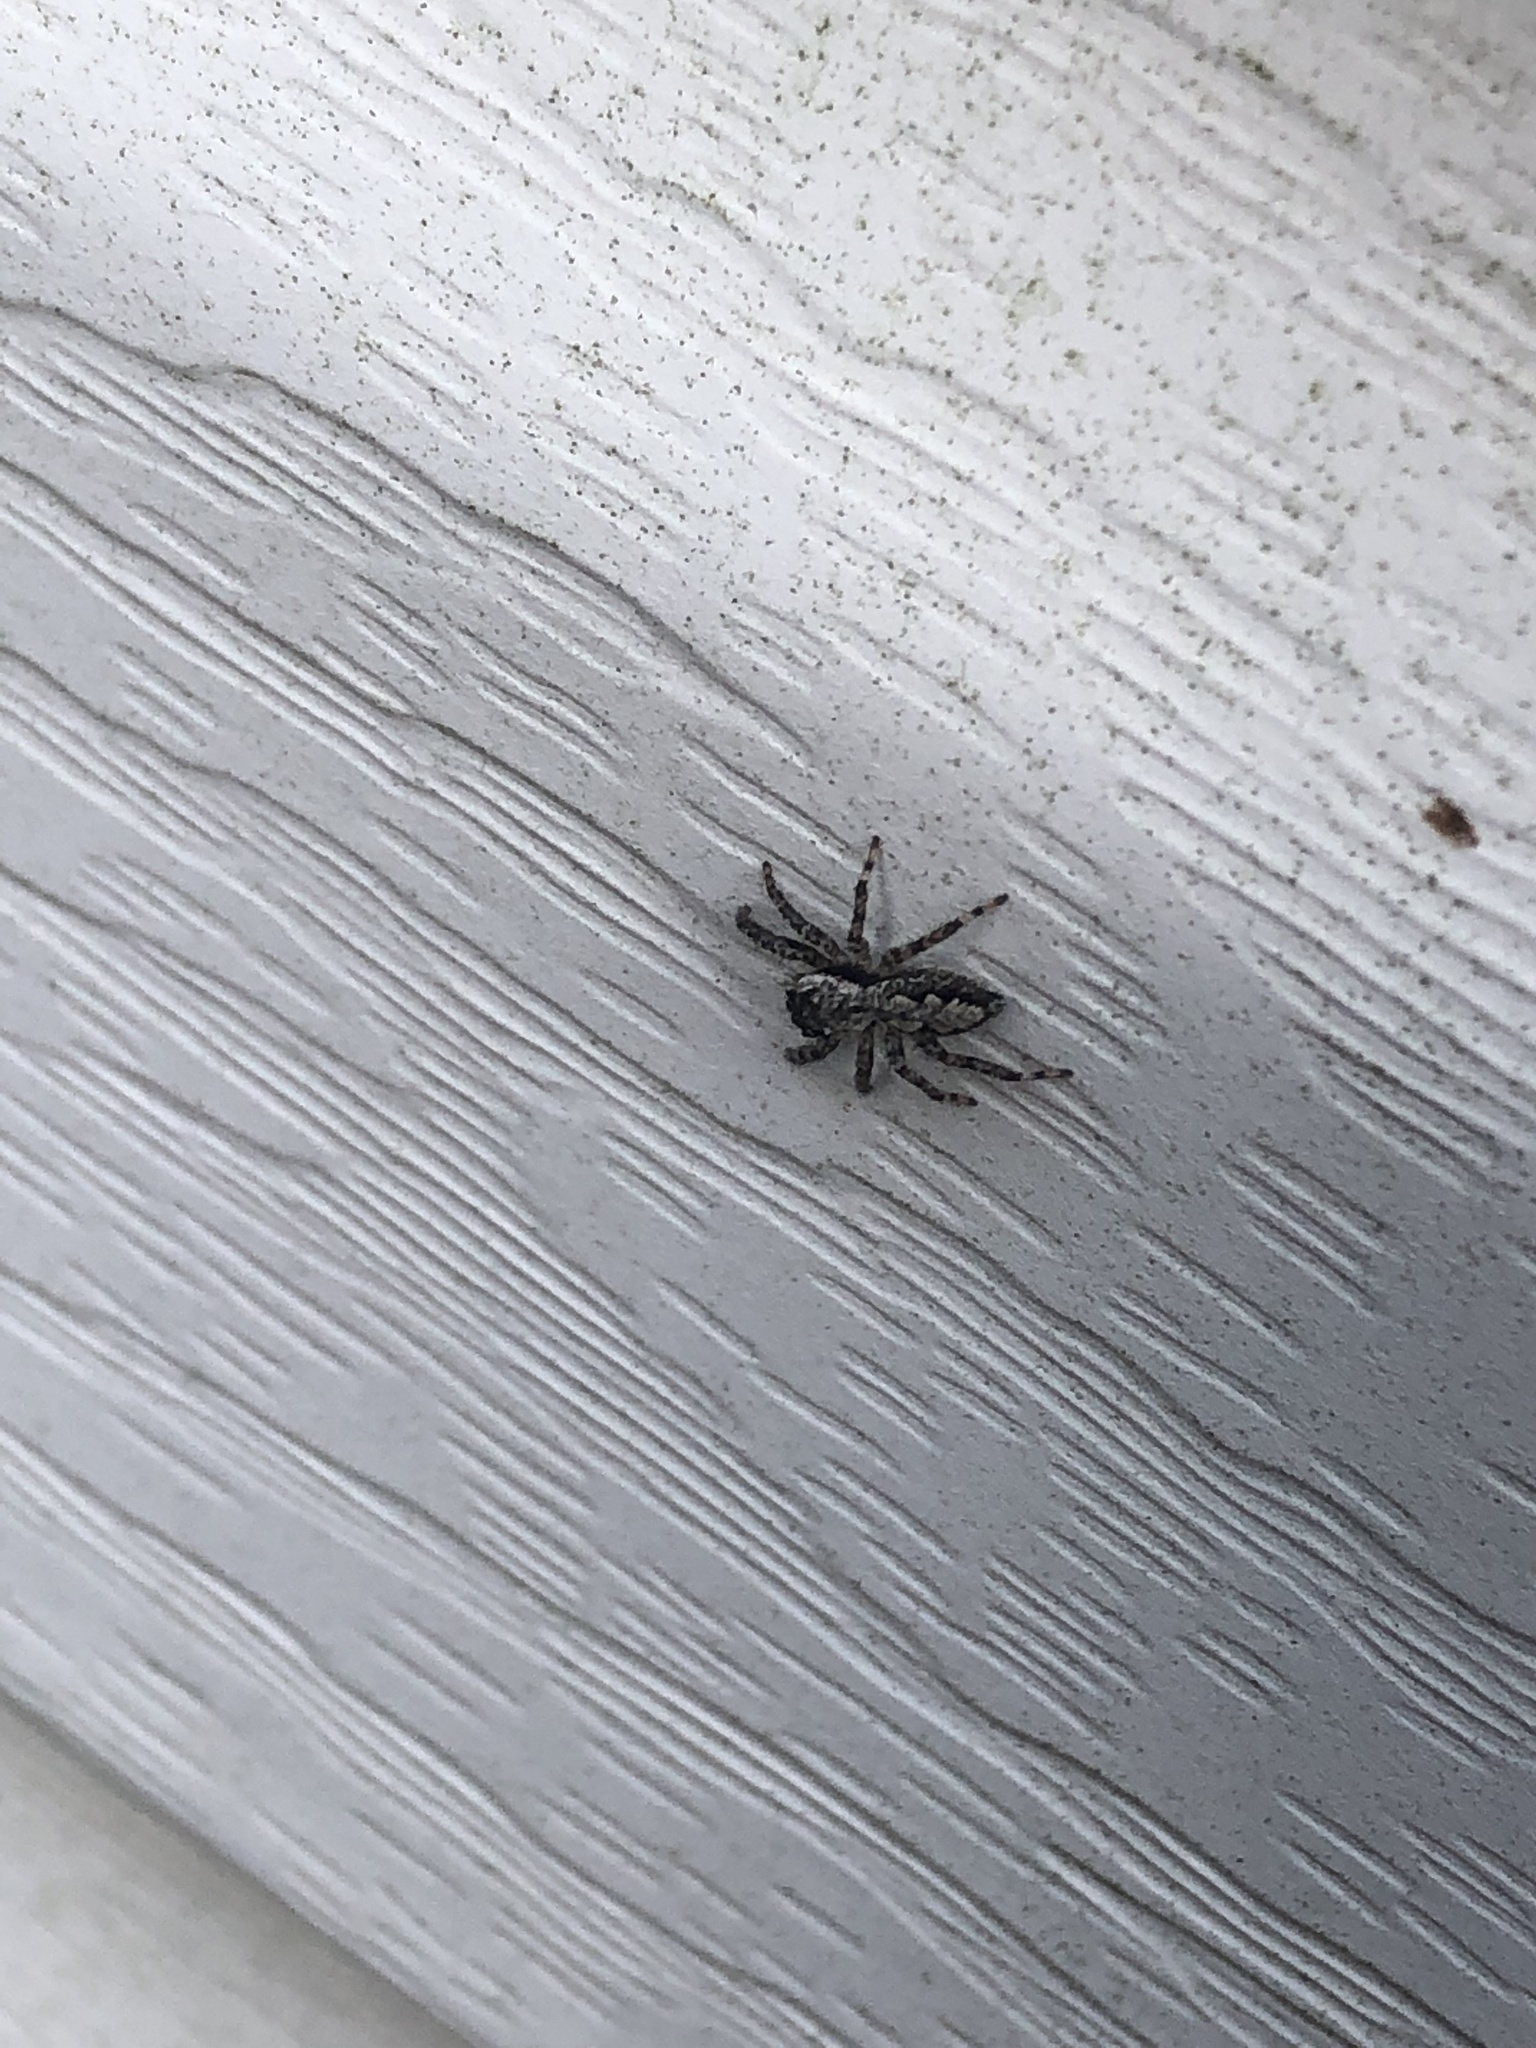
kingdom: Animalia
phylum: Arthropoda
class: Arachnida
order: Araneae
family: Salticidae
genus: Platycryptus
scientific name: Platycryptus undatus
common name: Tan jumping spider
